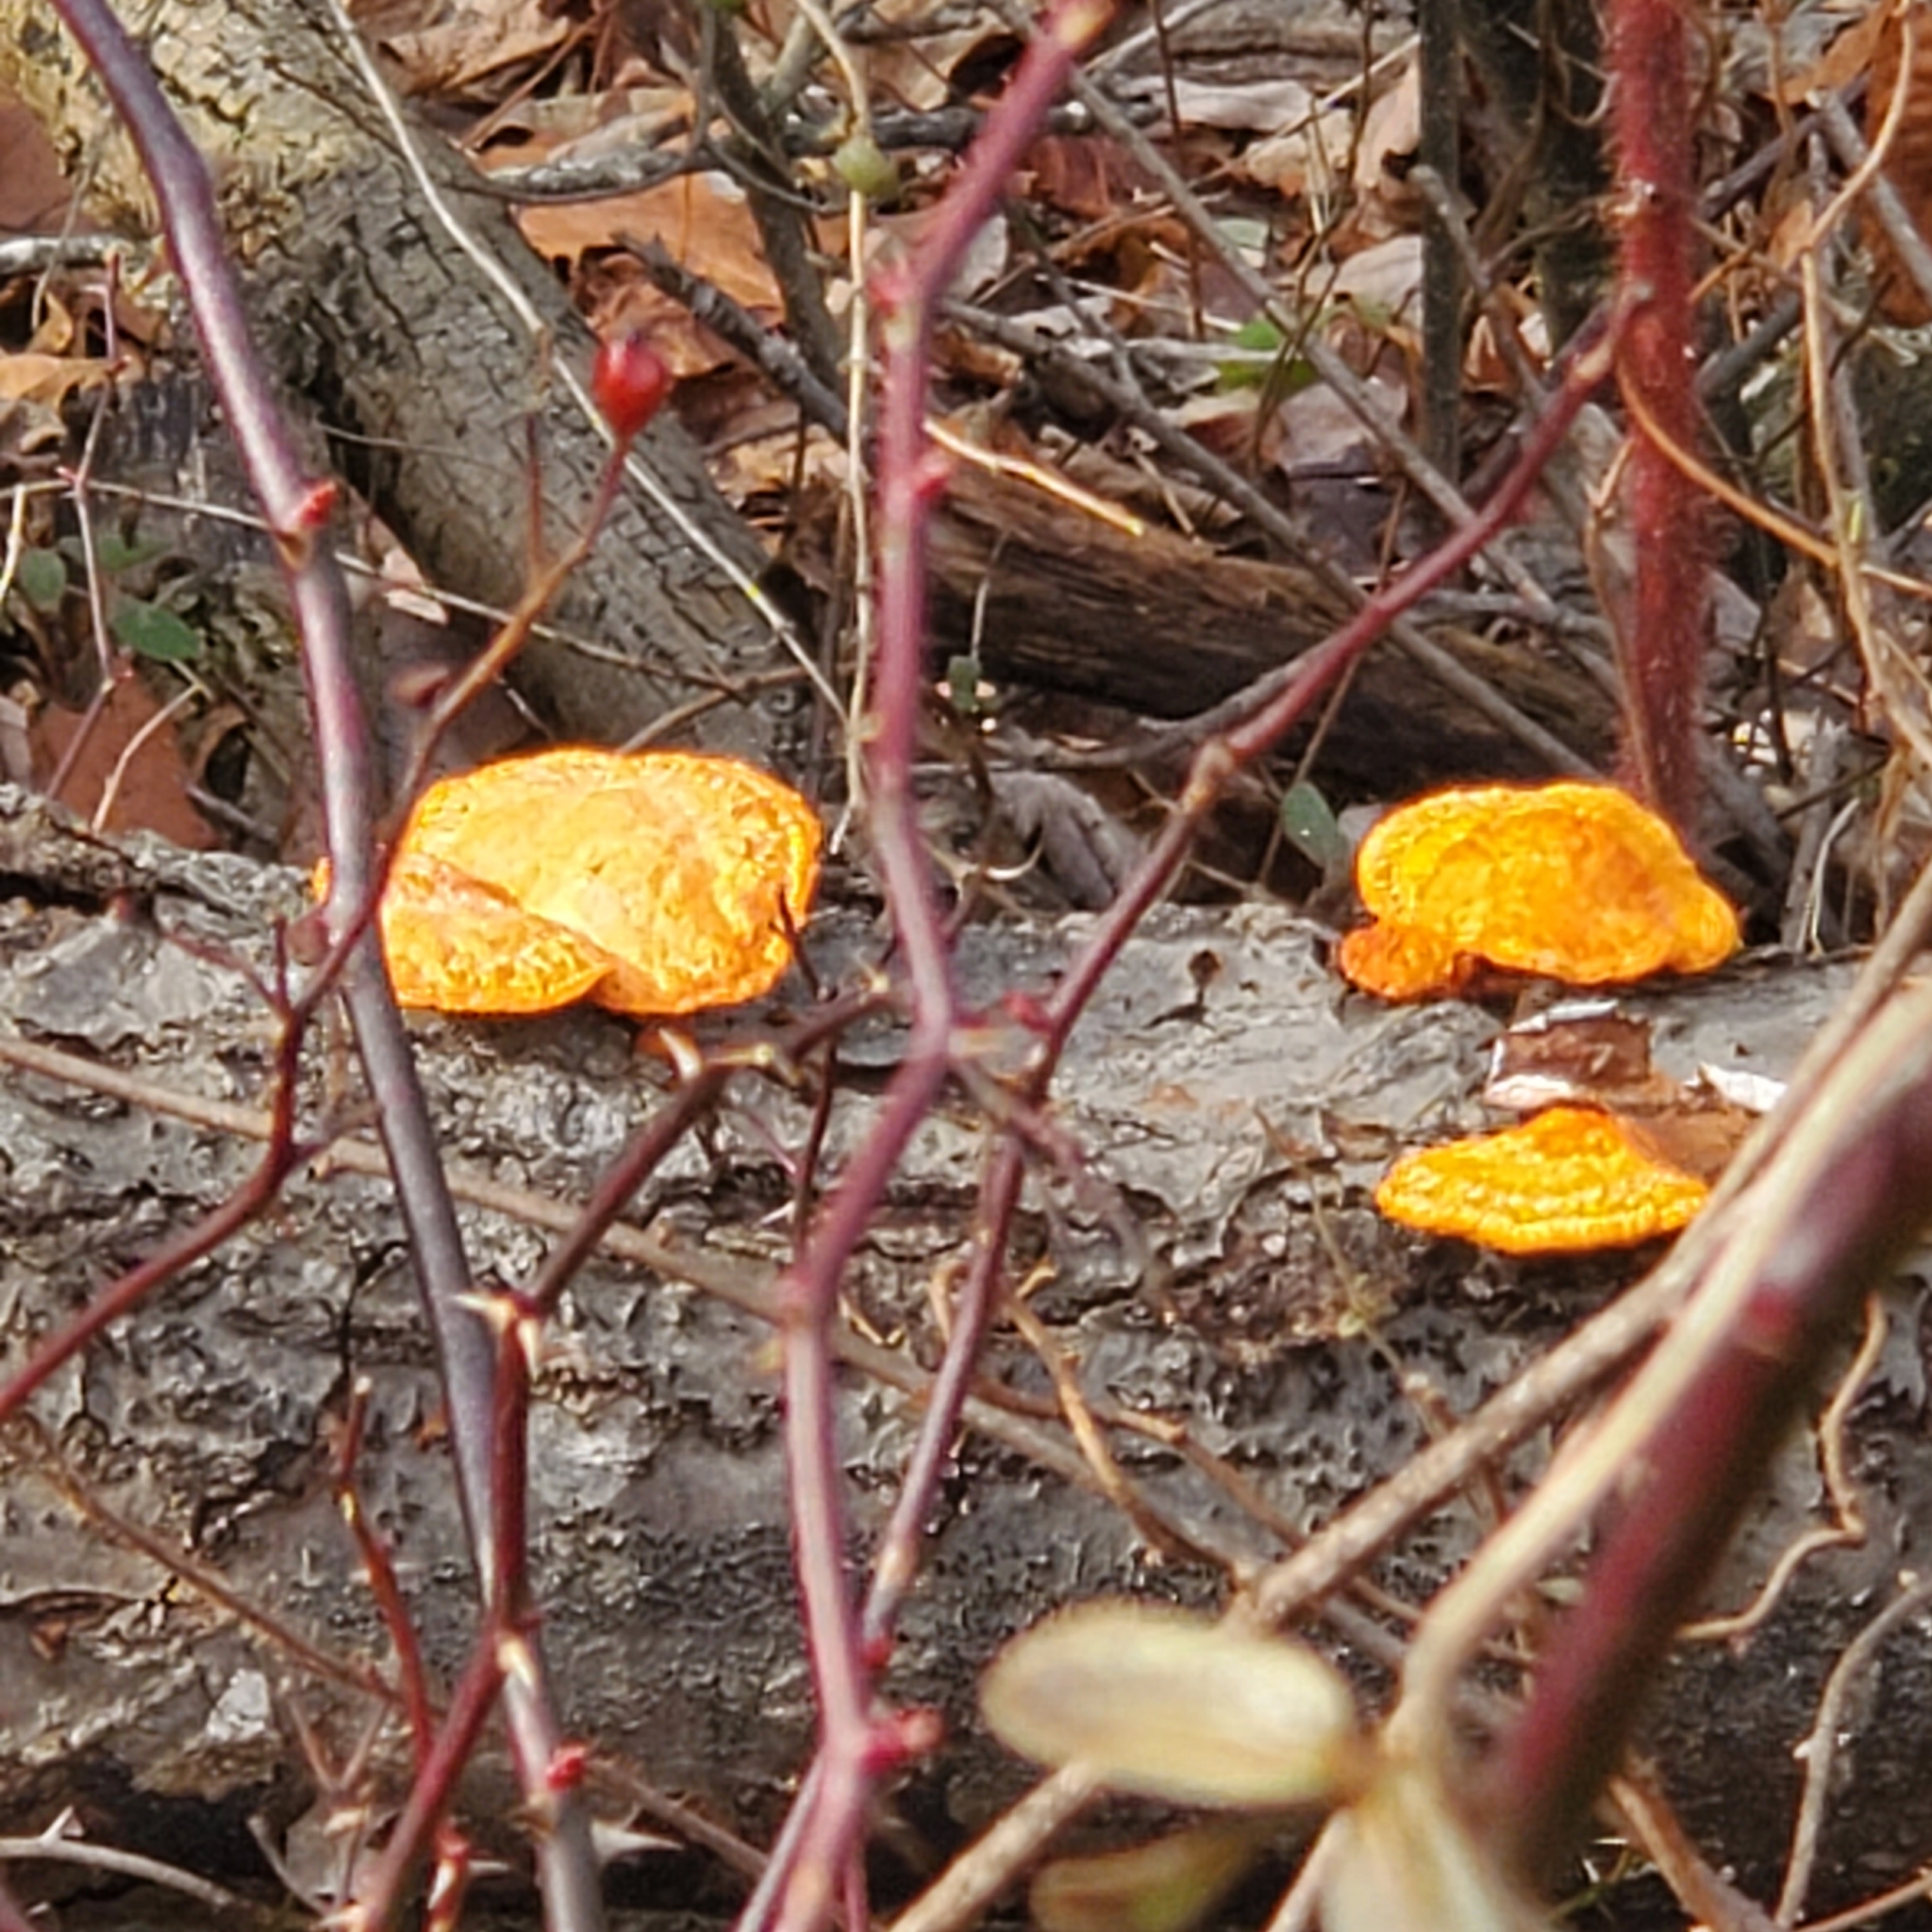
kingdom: Fungi
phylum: Basidiomycota
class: Agaricomycetes
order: Polyporales
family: Polyporaceae
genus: Trametes
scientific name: Trametes cinnabarina
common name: Northern cinnabar polypore
